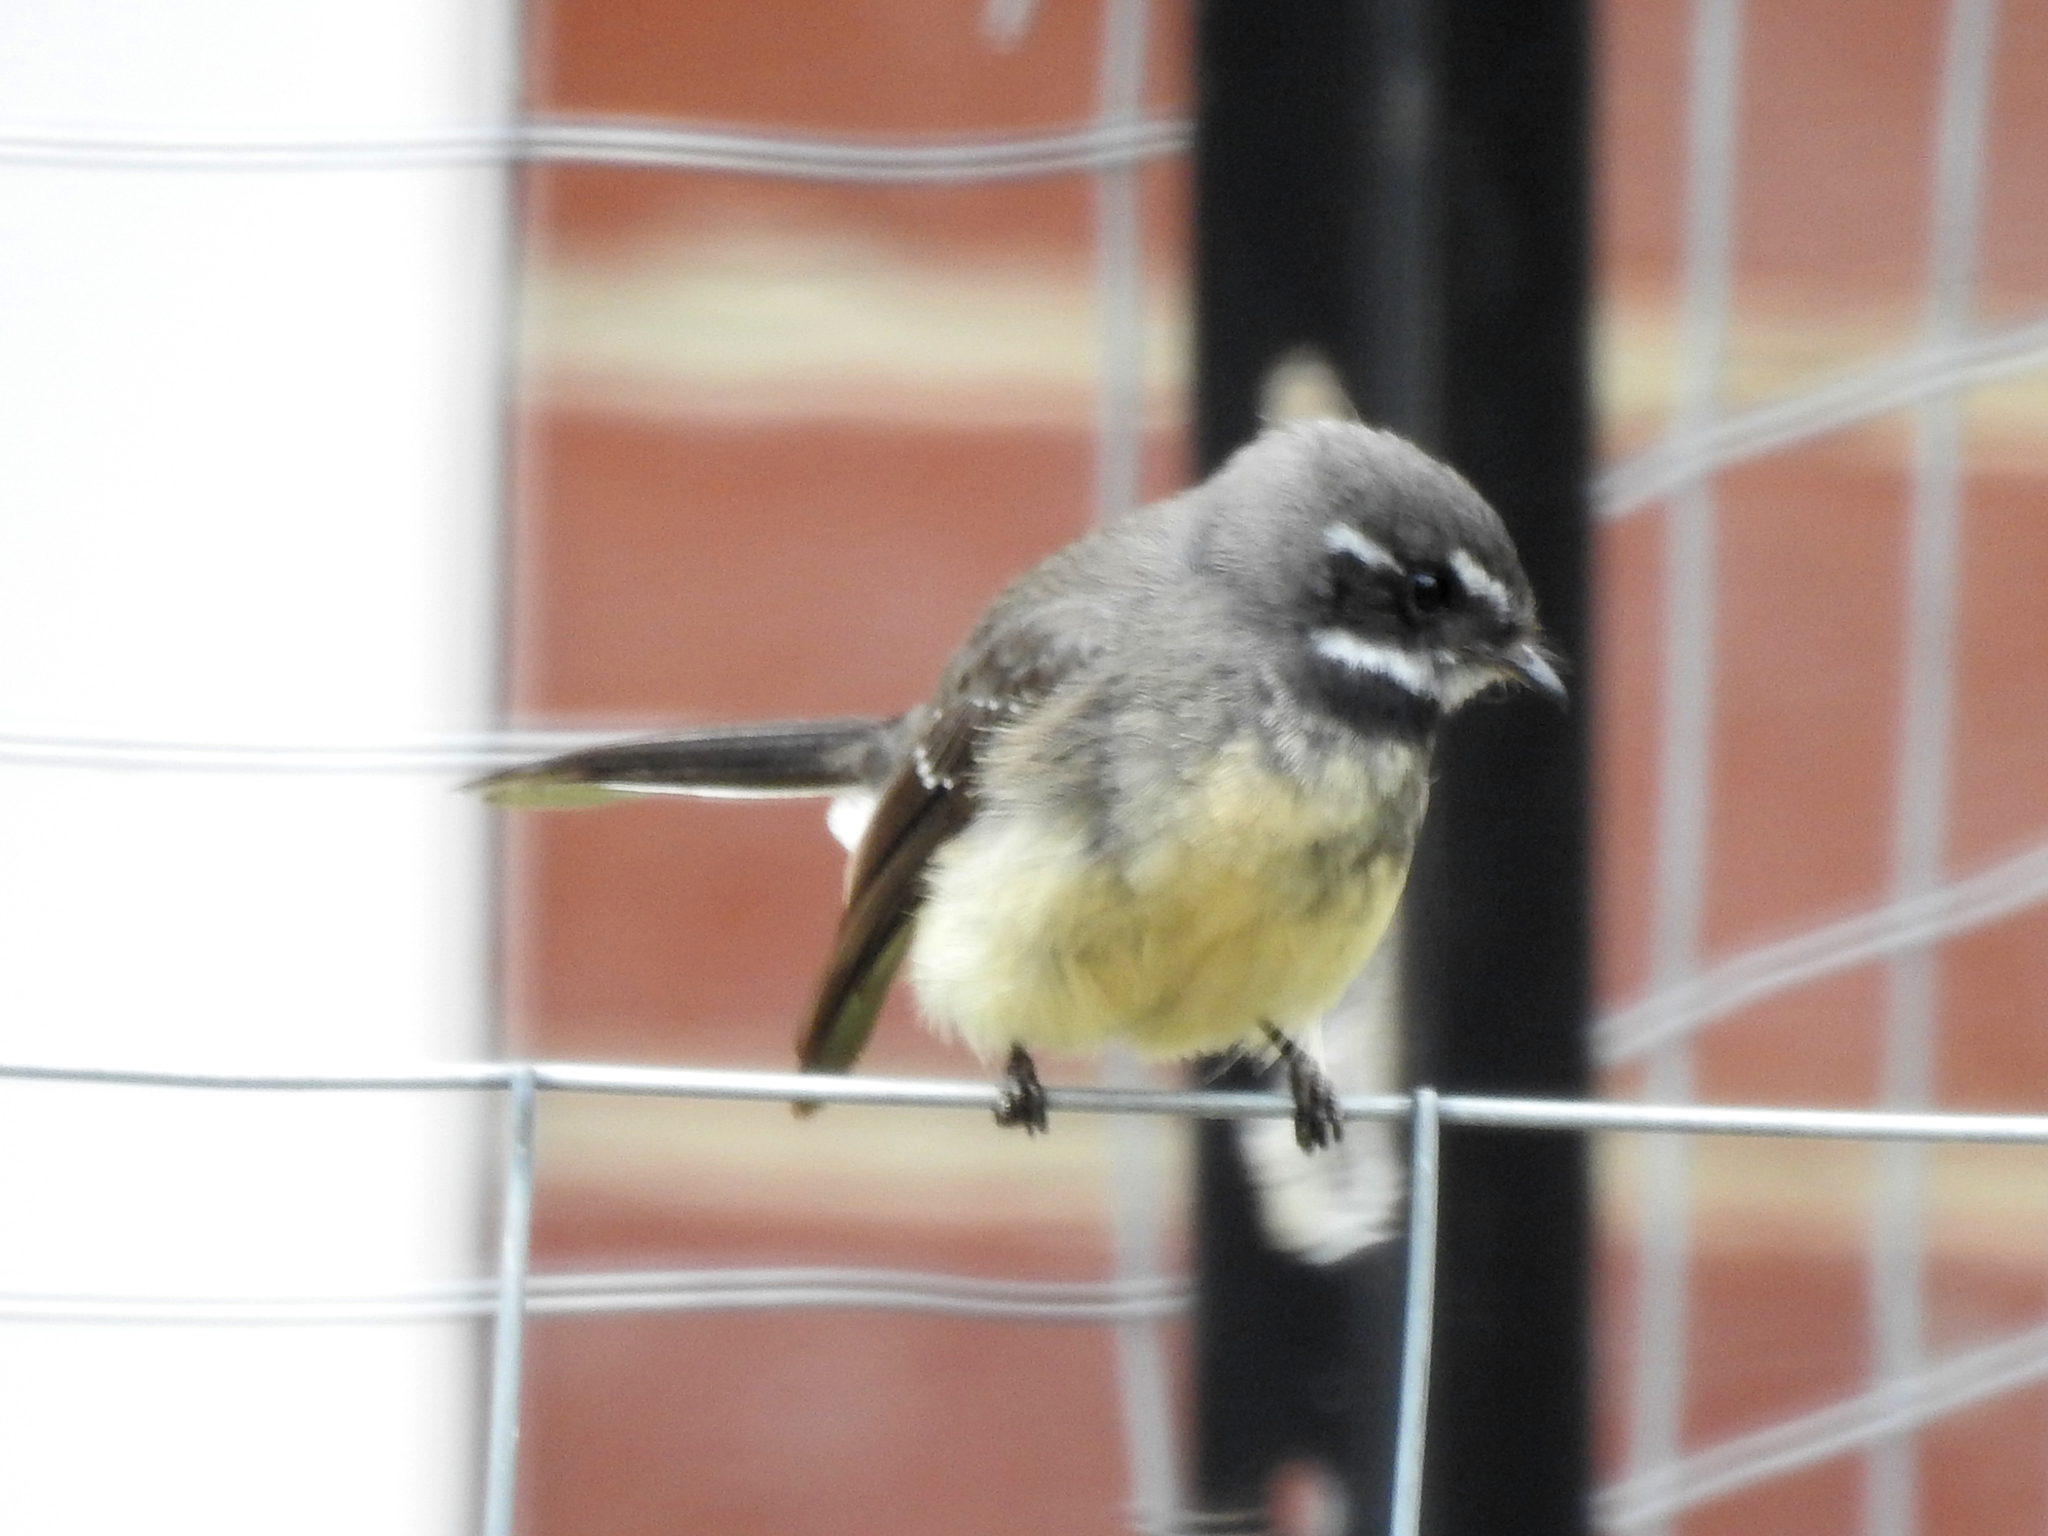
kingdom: Animalia
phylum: Chordata
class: Aves
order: Passeriformes
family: Rhipiduridae
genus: Rhipidura
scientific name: Rhipidura albiscapa
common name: Grey fantail
